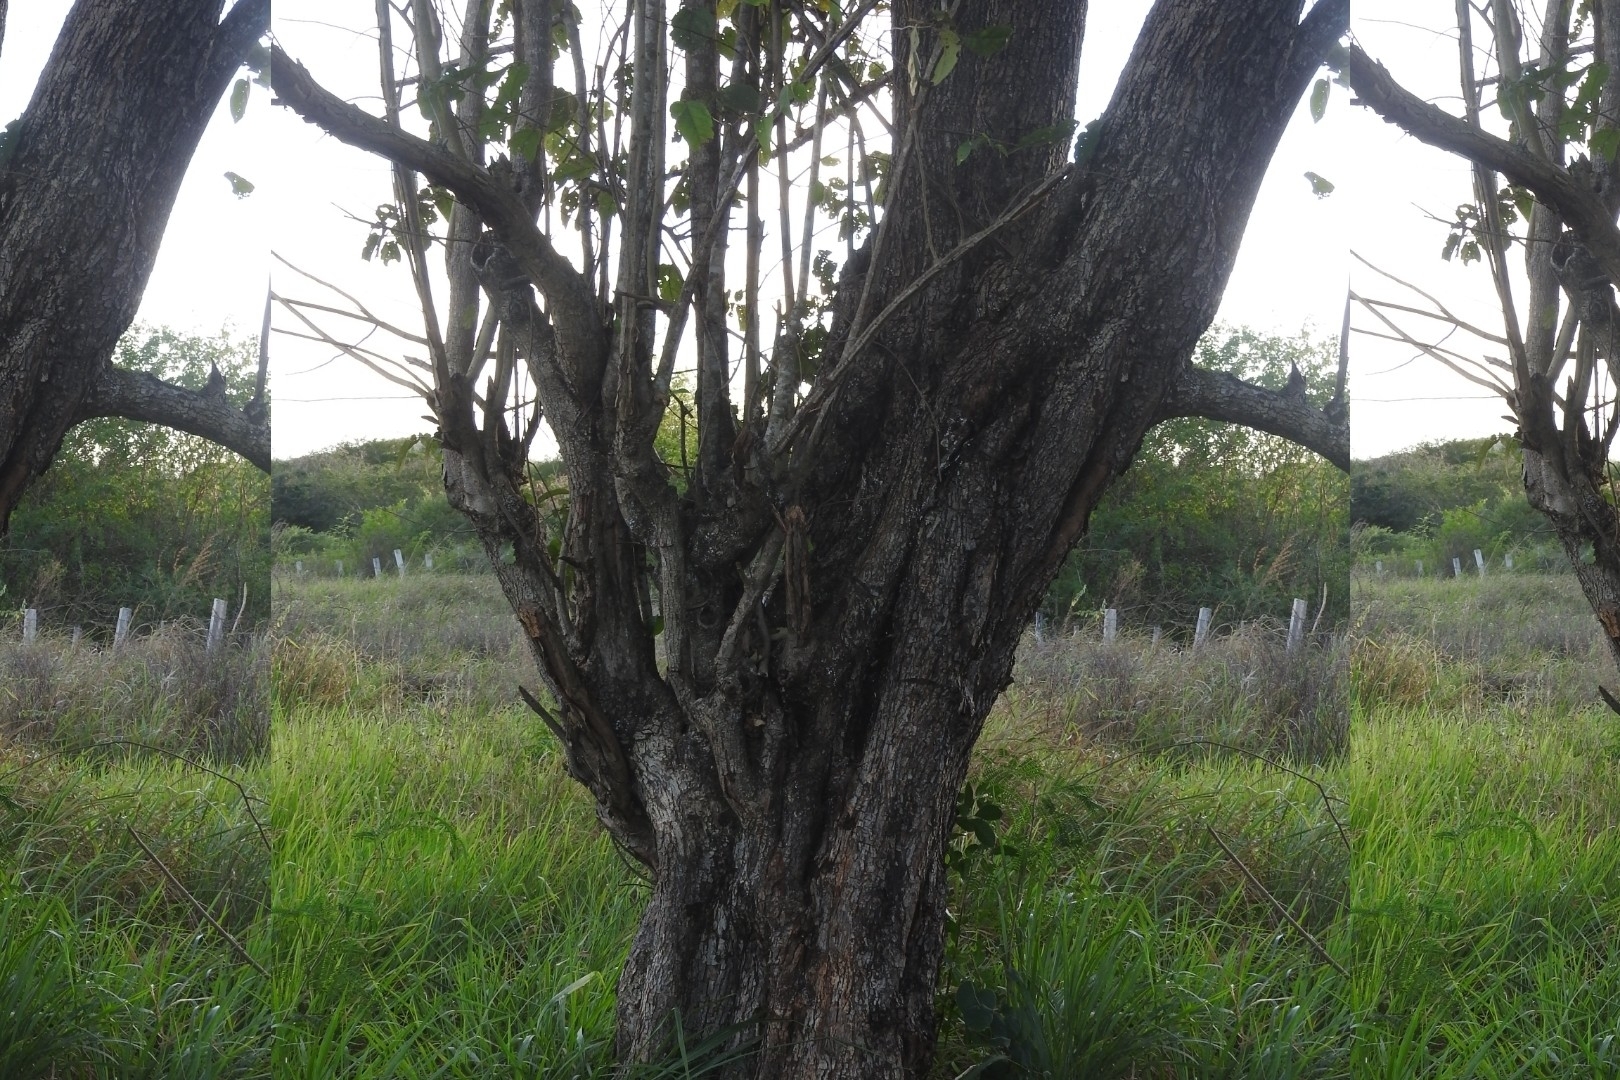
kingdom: Plantae
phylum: Tracheophyta
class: Magnoliopsida
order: Malvales
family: Malvaceae
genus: Guazuma
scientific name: Guazuma ulmifolia
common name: Bastard-cedar
